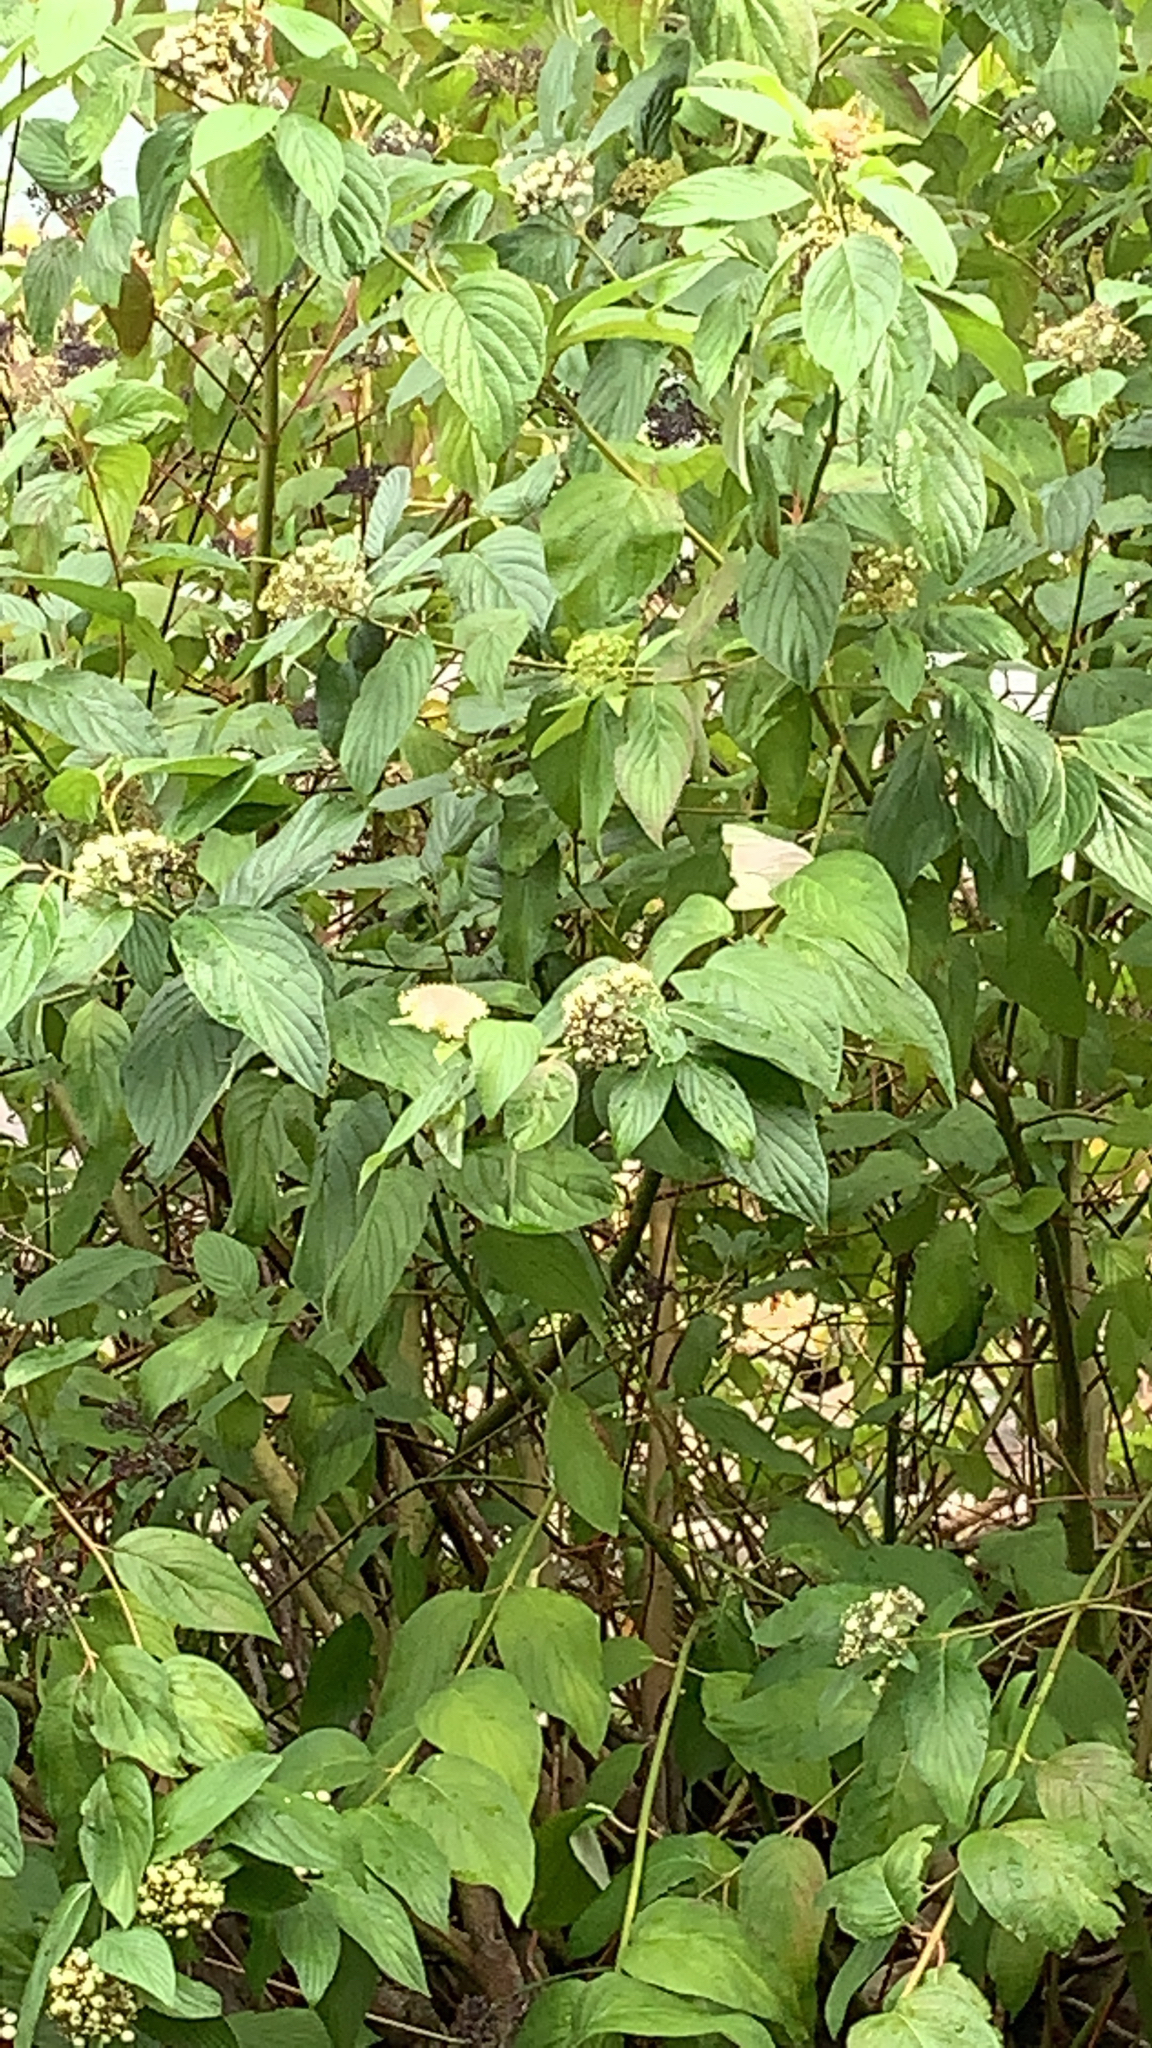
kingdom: Plantae
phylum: Tracheophyta
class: Magnoliopsida
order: Cornales
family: Cornaceae
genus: Cornus
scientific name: Cornus sericea
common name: Red-osier dogwood
